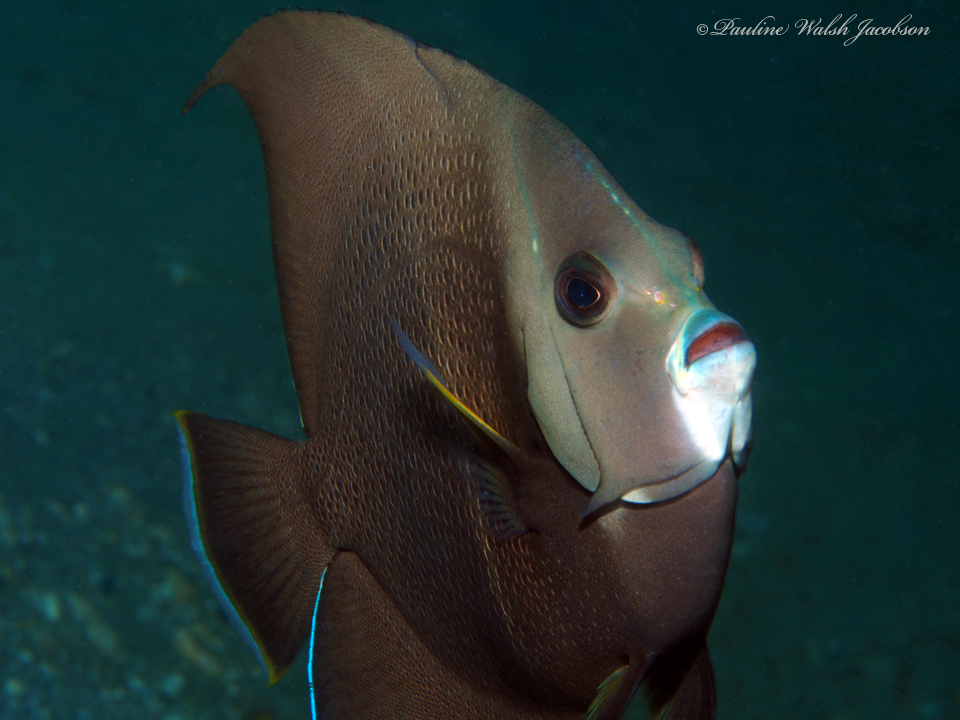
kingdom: Animalia
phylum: Chordata
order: Perciformes
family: Pomacanthidae
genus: Pomacanthus
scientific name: Pomacanthus arcuatus
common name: Gray angelfish
